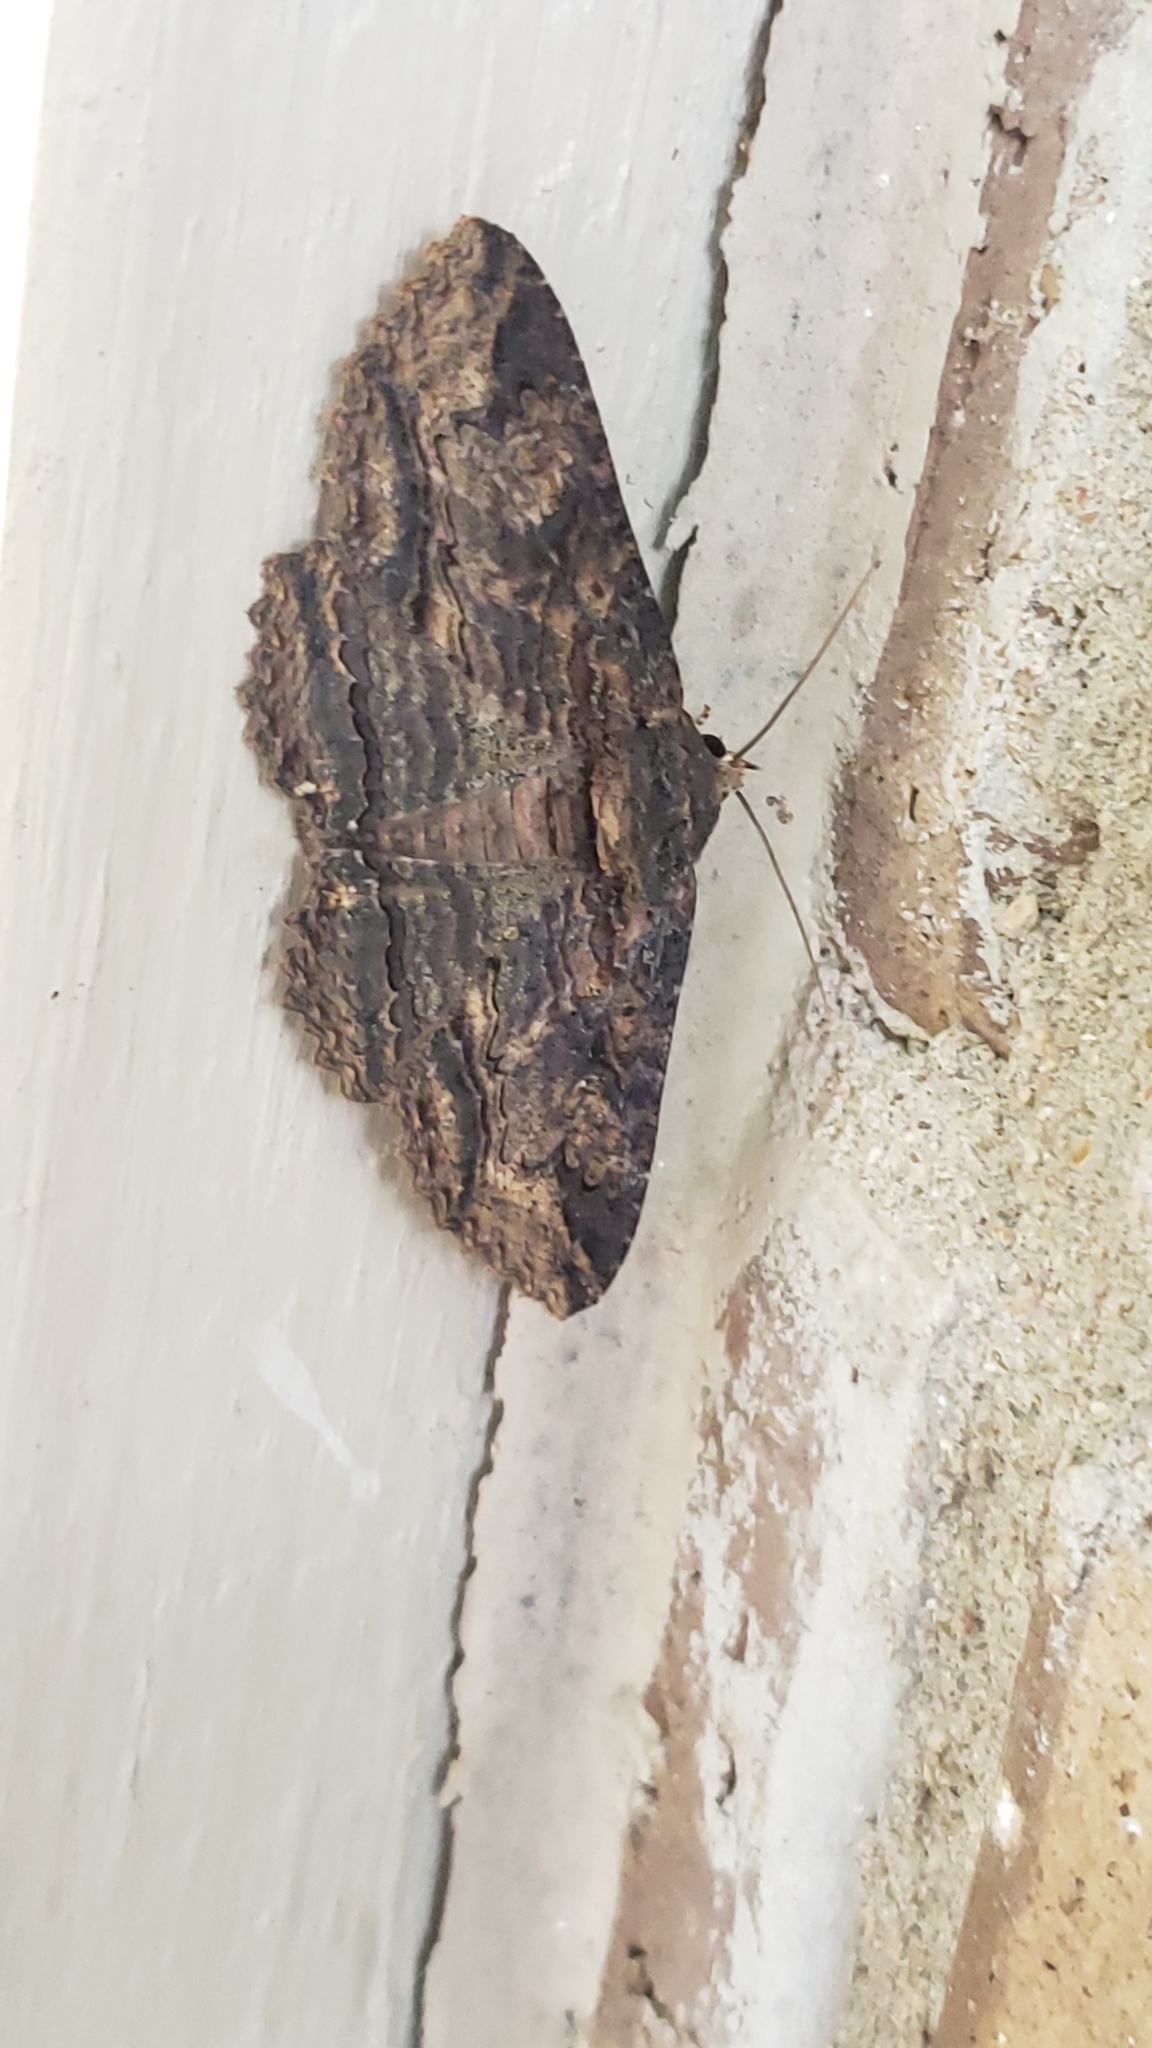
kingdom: Animalia
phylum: Arthropoda
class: Insecta
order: Lepidoptera
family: Erebidae
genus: Zale
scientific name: Zale lunata
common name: Lunate zale moth
